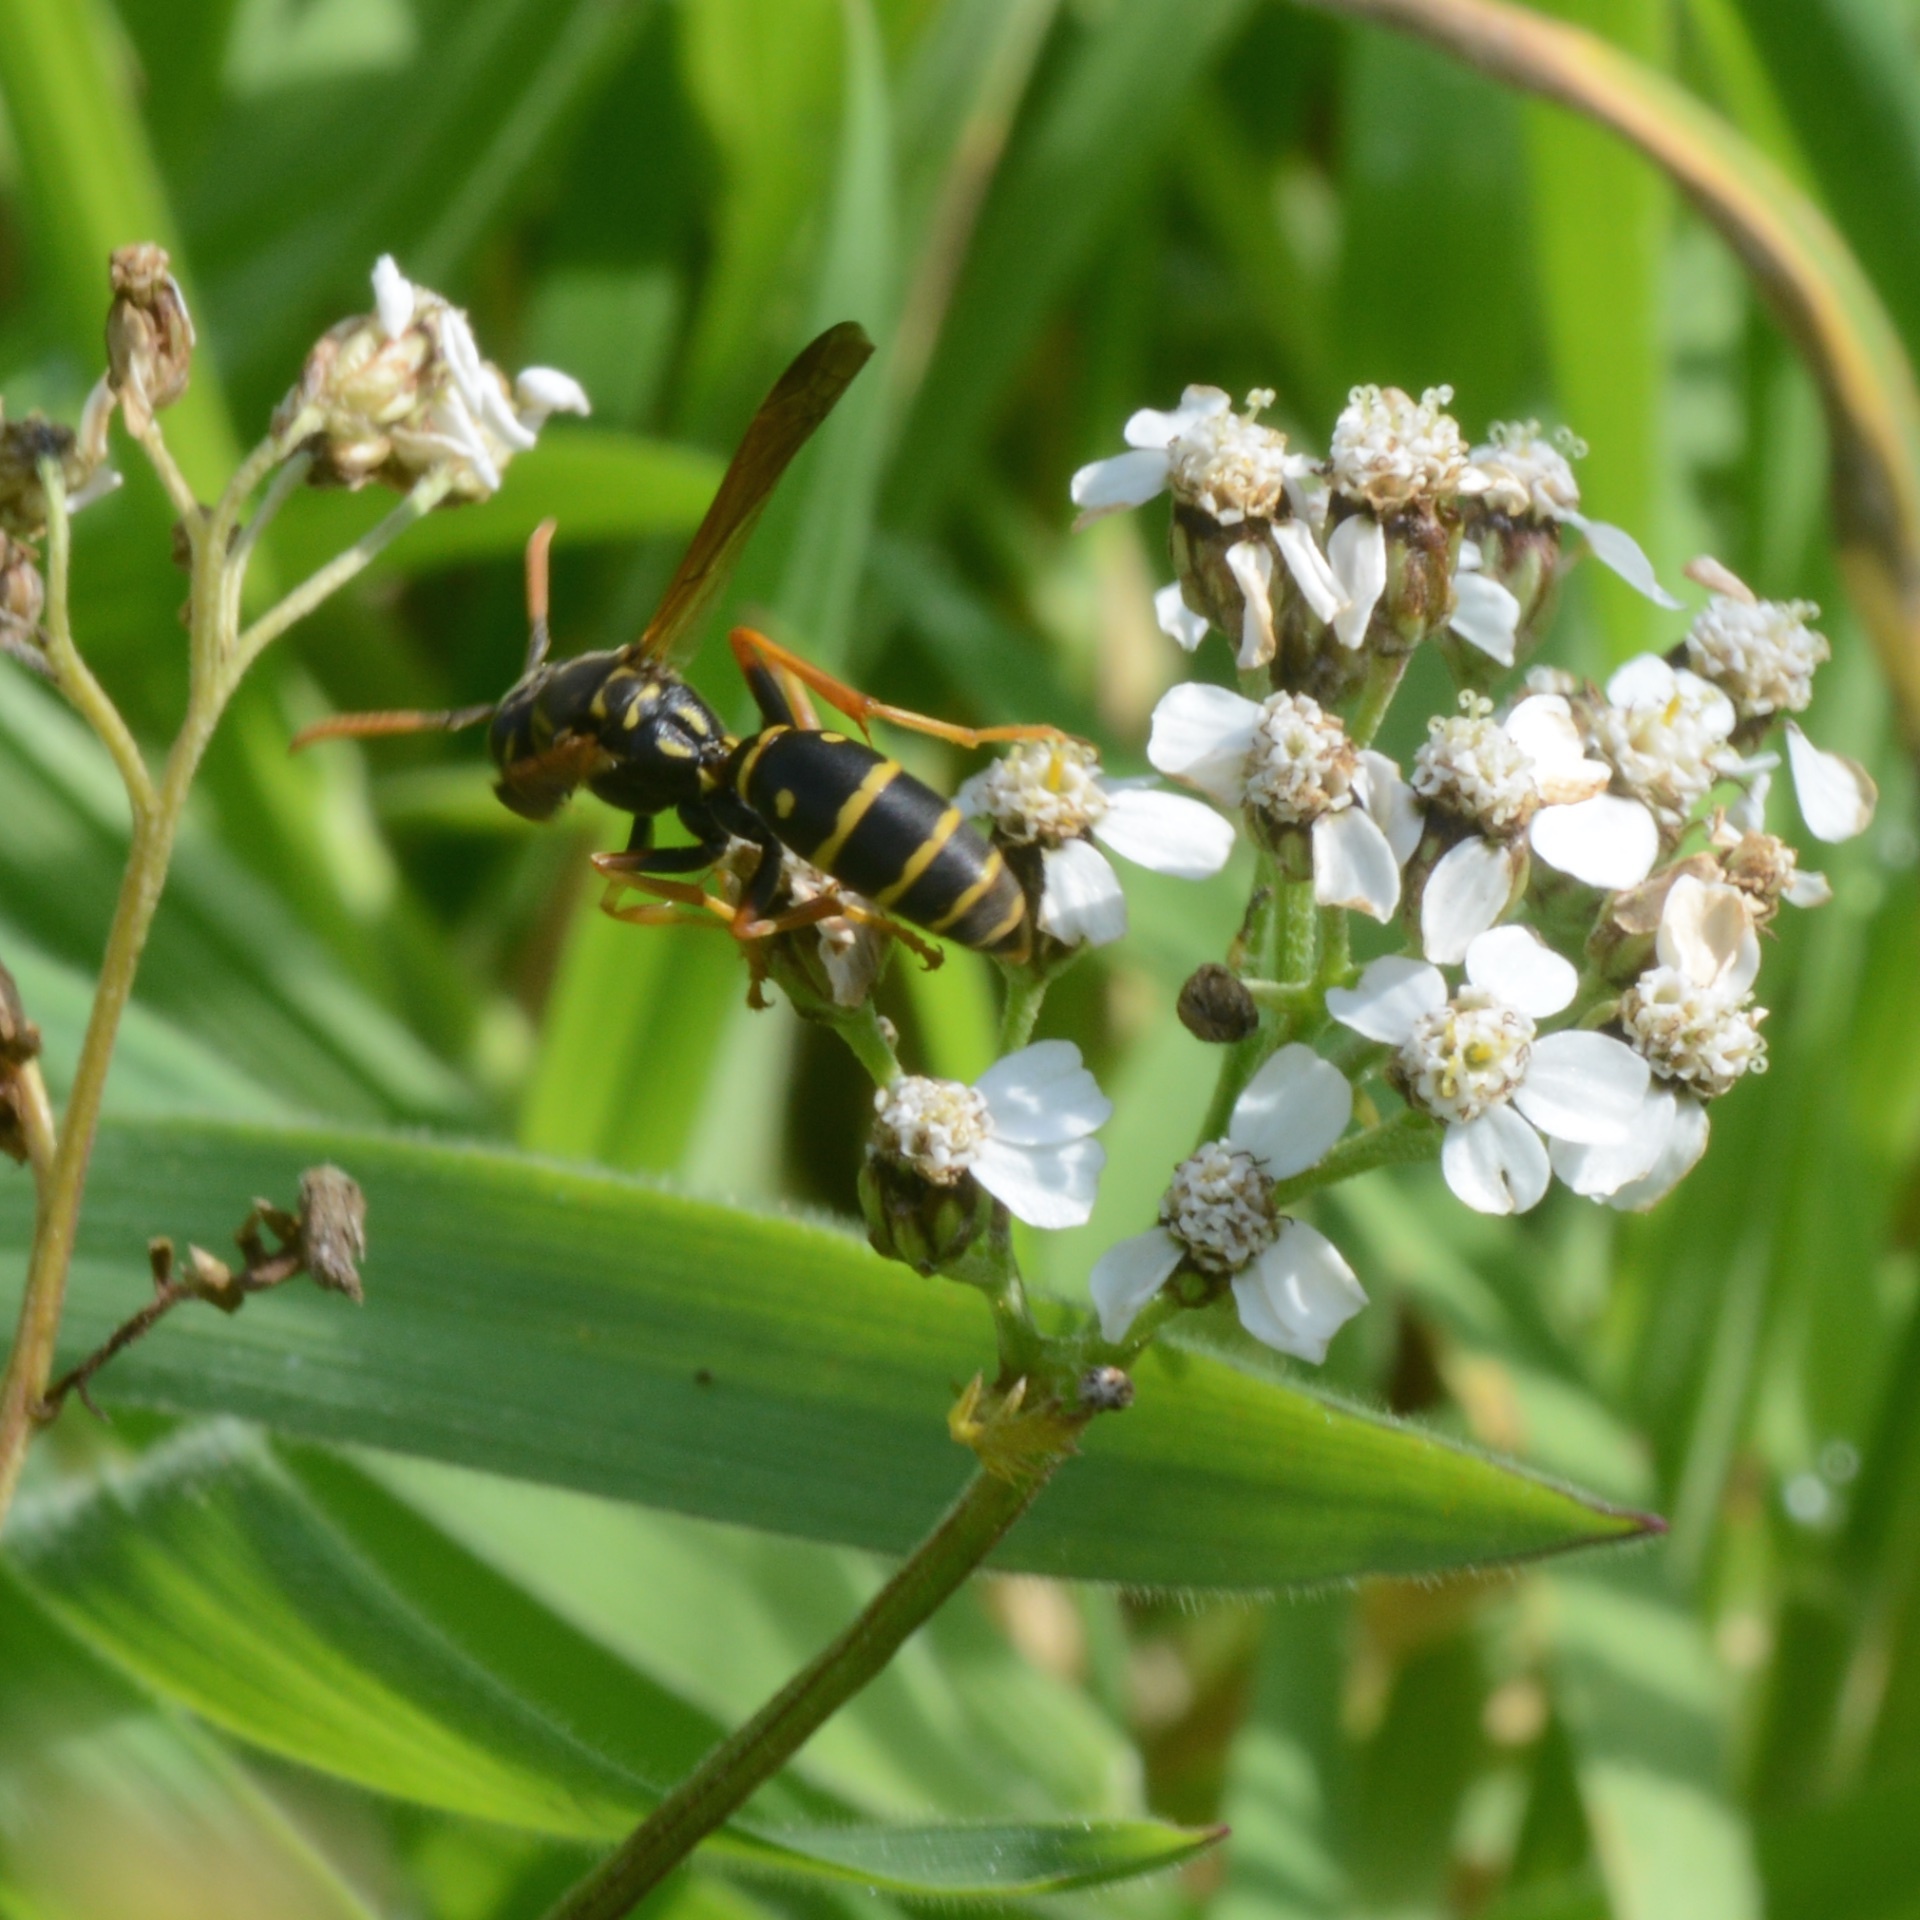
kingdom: Animalia
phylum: Arthropoda
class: Insecta
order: Hymenoptera
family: Eumenidae
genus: Polistes
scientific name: Polistes chinensis
